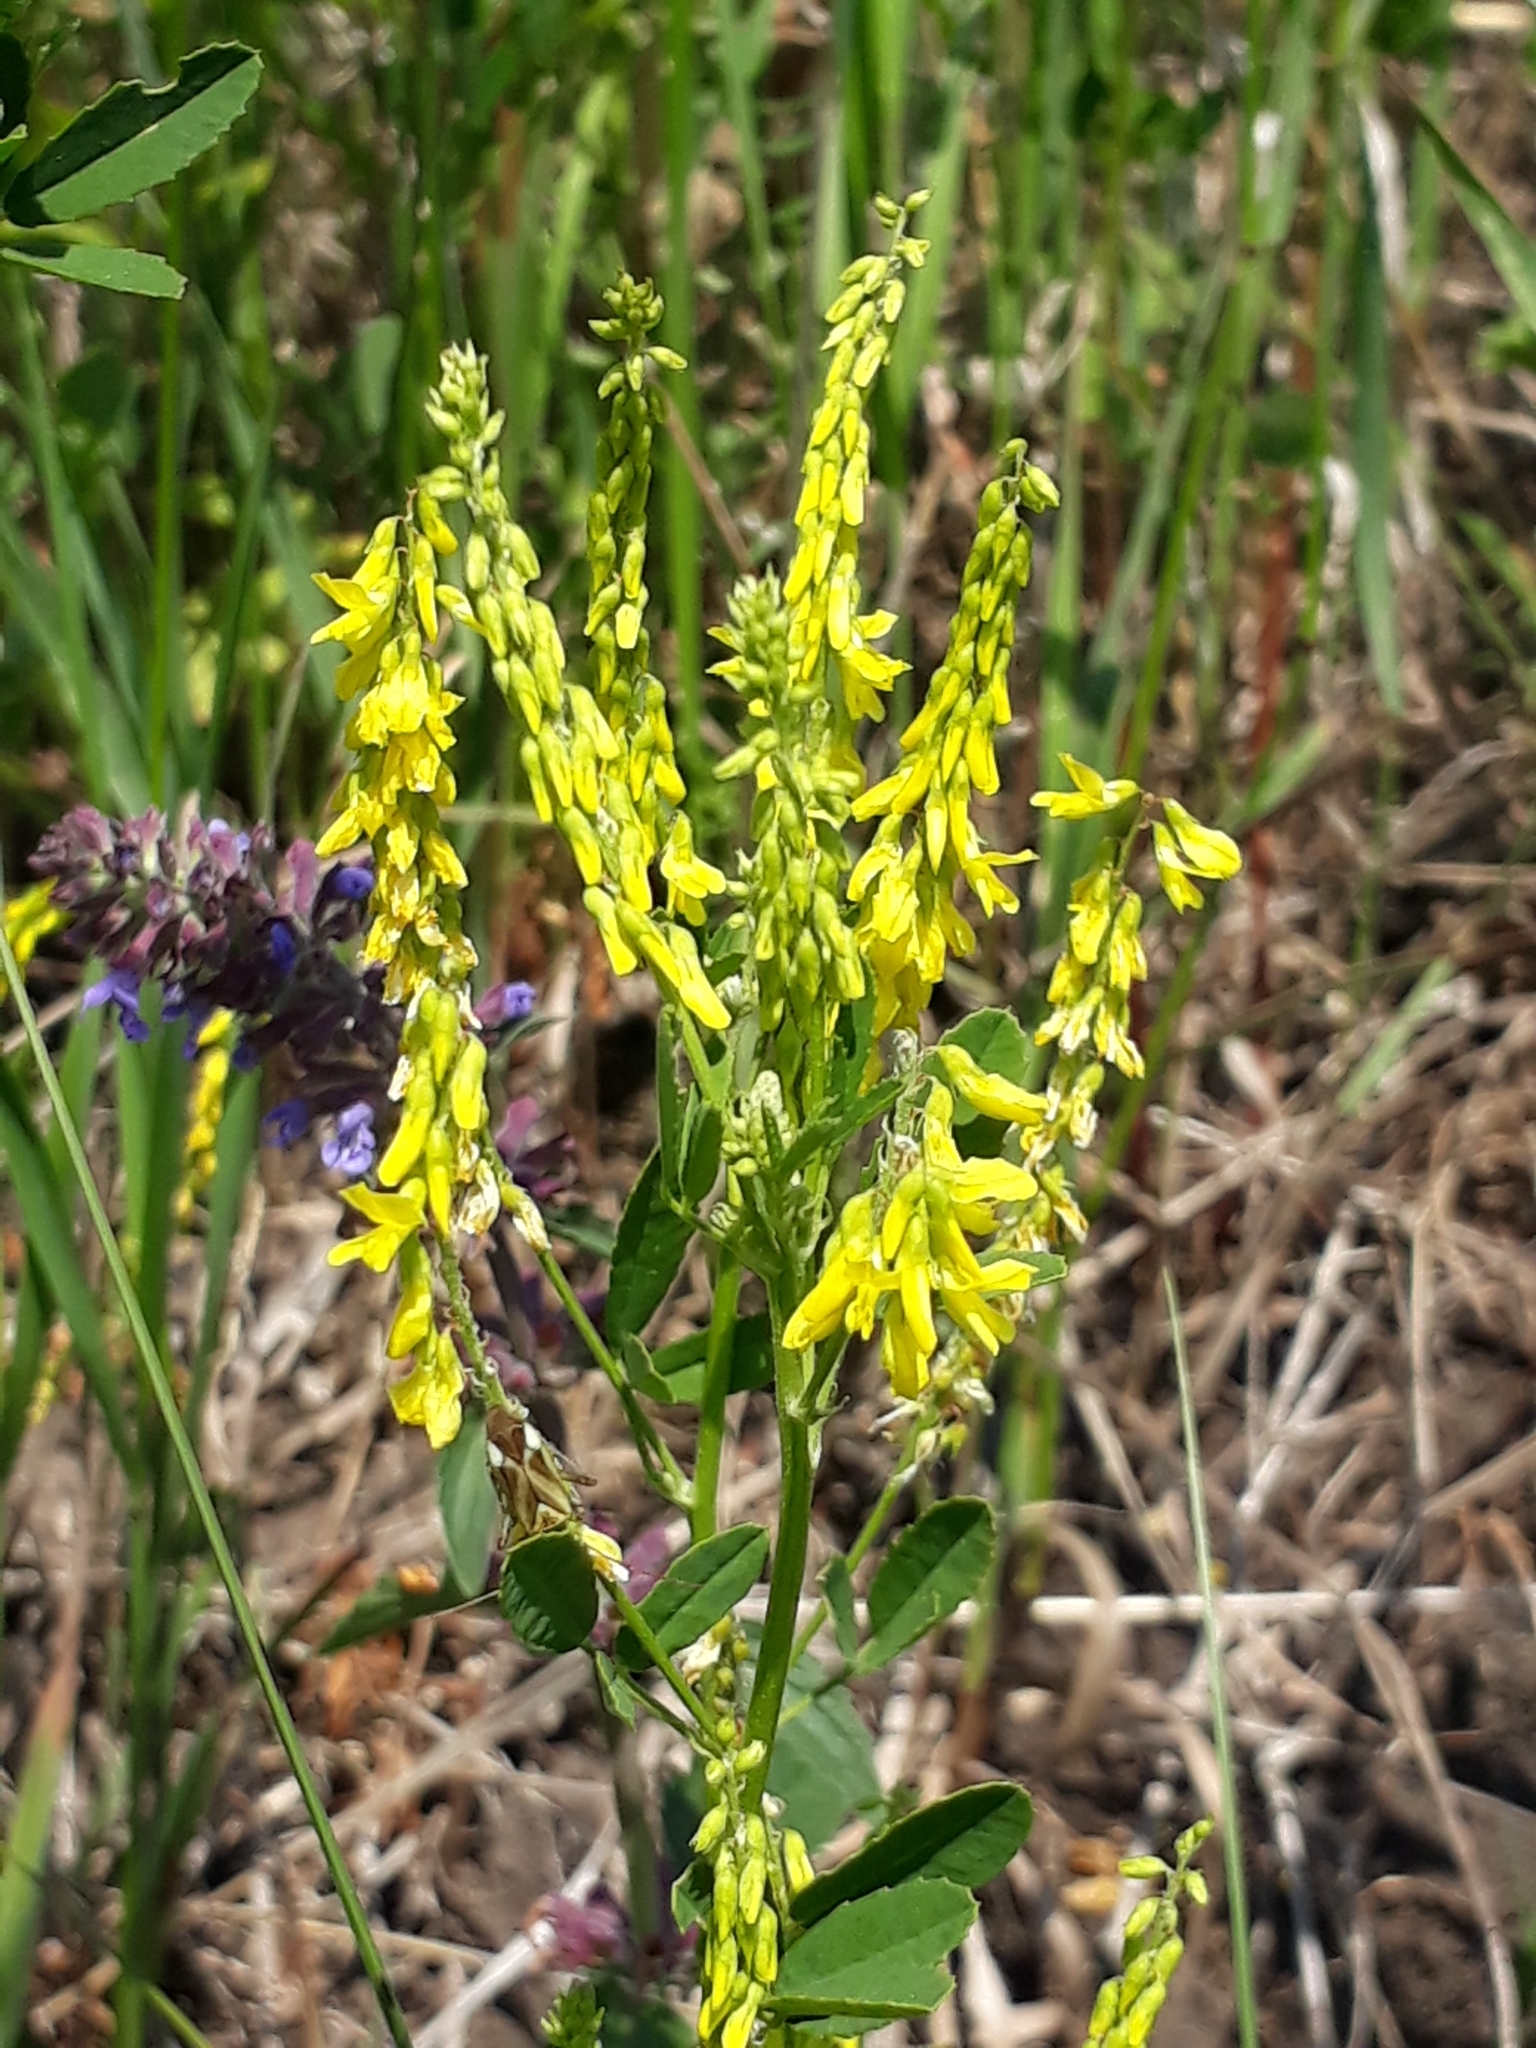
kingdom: Plantae
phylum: Tracheophyta
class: Magnoliopsida
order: Fabales
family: Fabaceae
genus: Melilotus
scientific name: Melilotus officinalis
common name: Sweetclover
